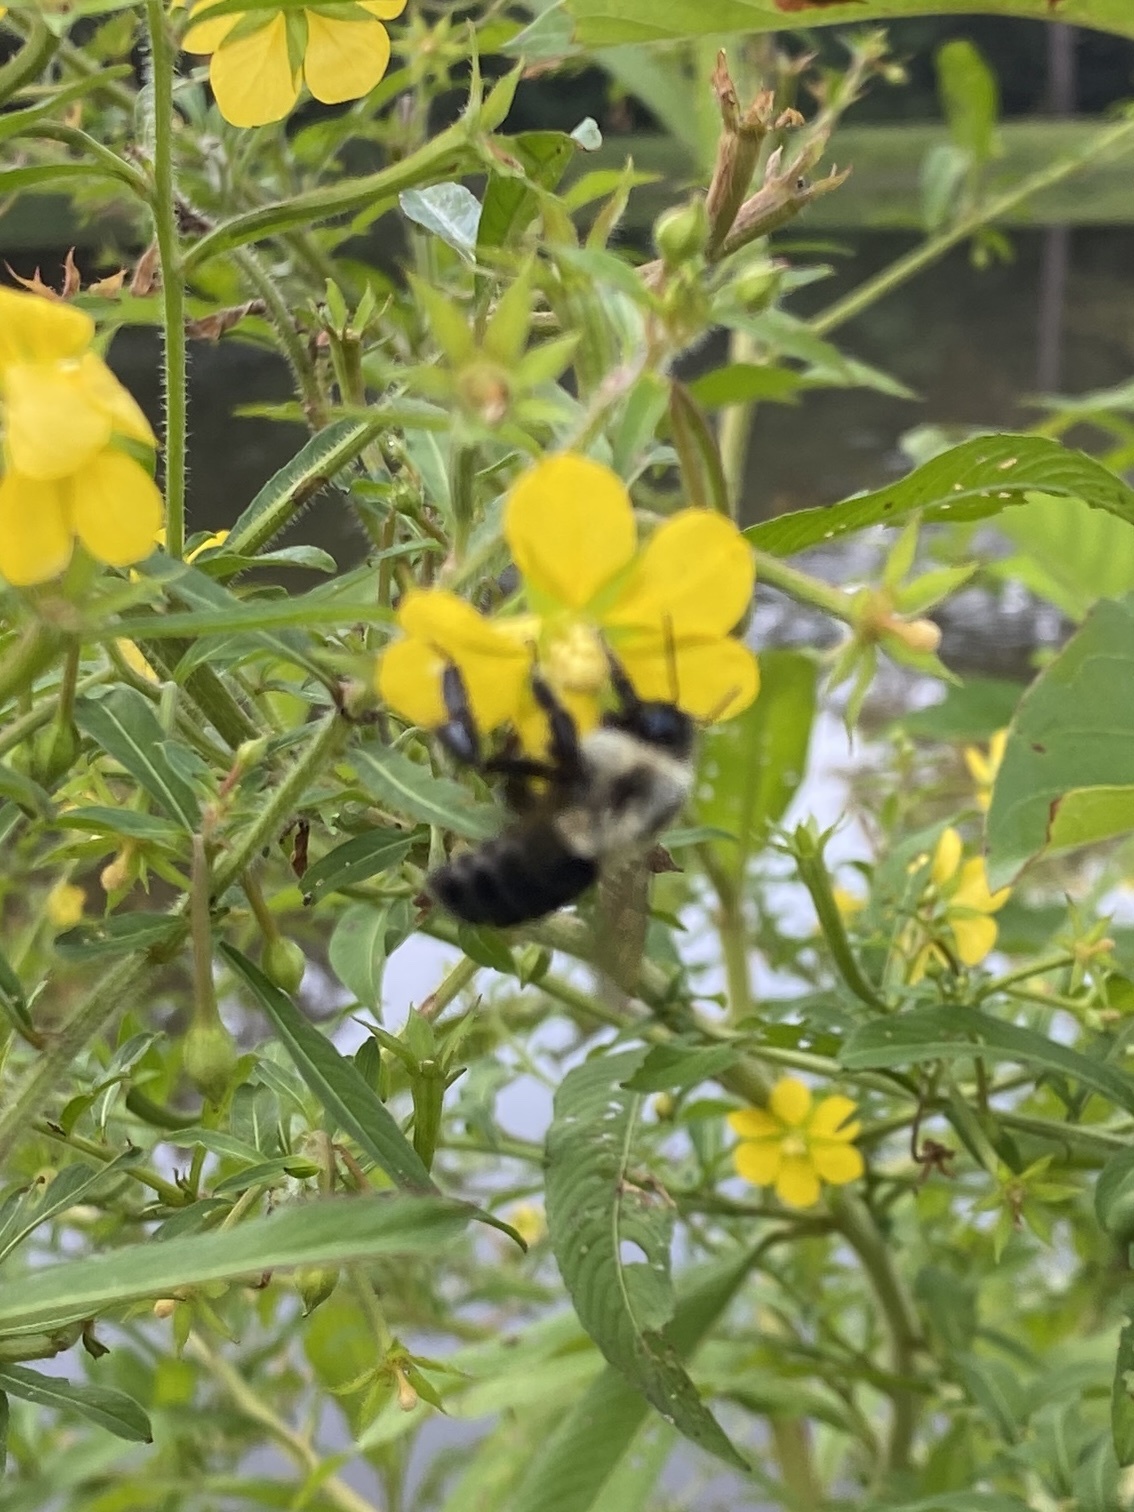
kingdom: Animalia
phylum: Arthropoda
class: Insecta
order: Hymenoptera
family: Apidae
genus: Bombus
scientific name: Bombus impatiens
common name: Common eastern bumble bee
